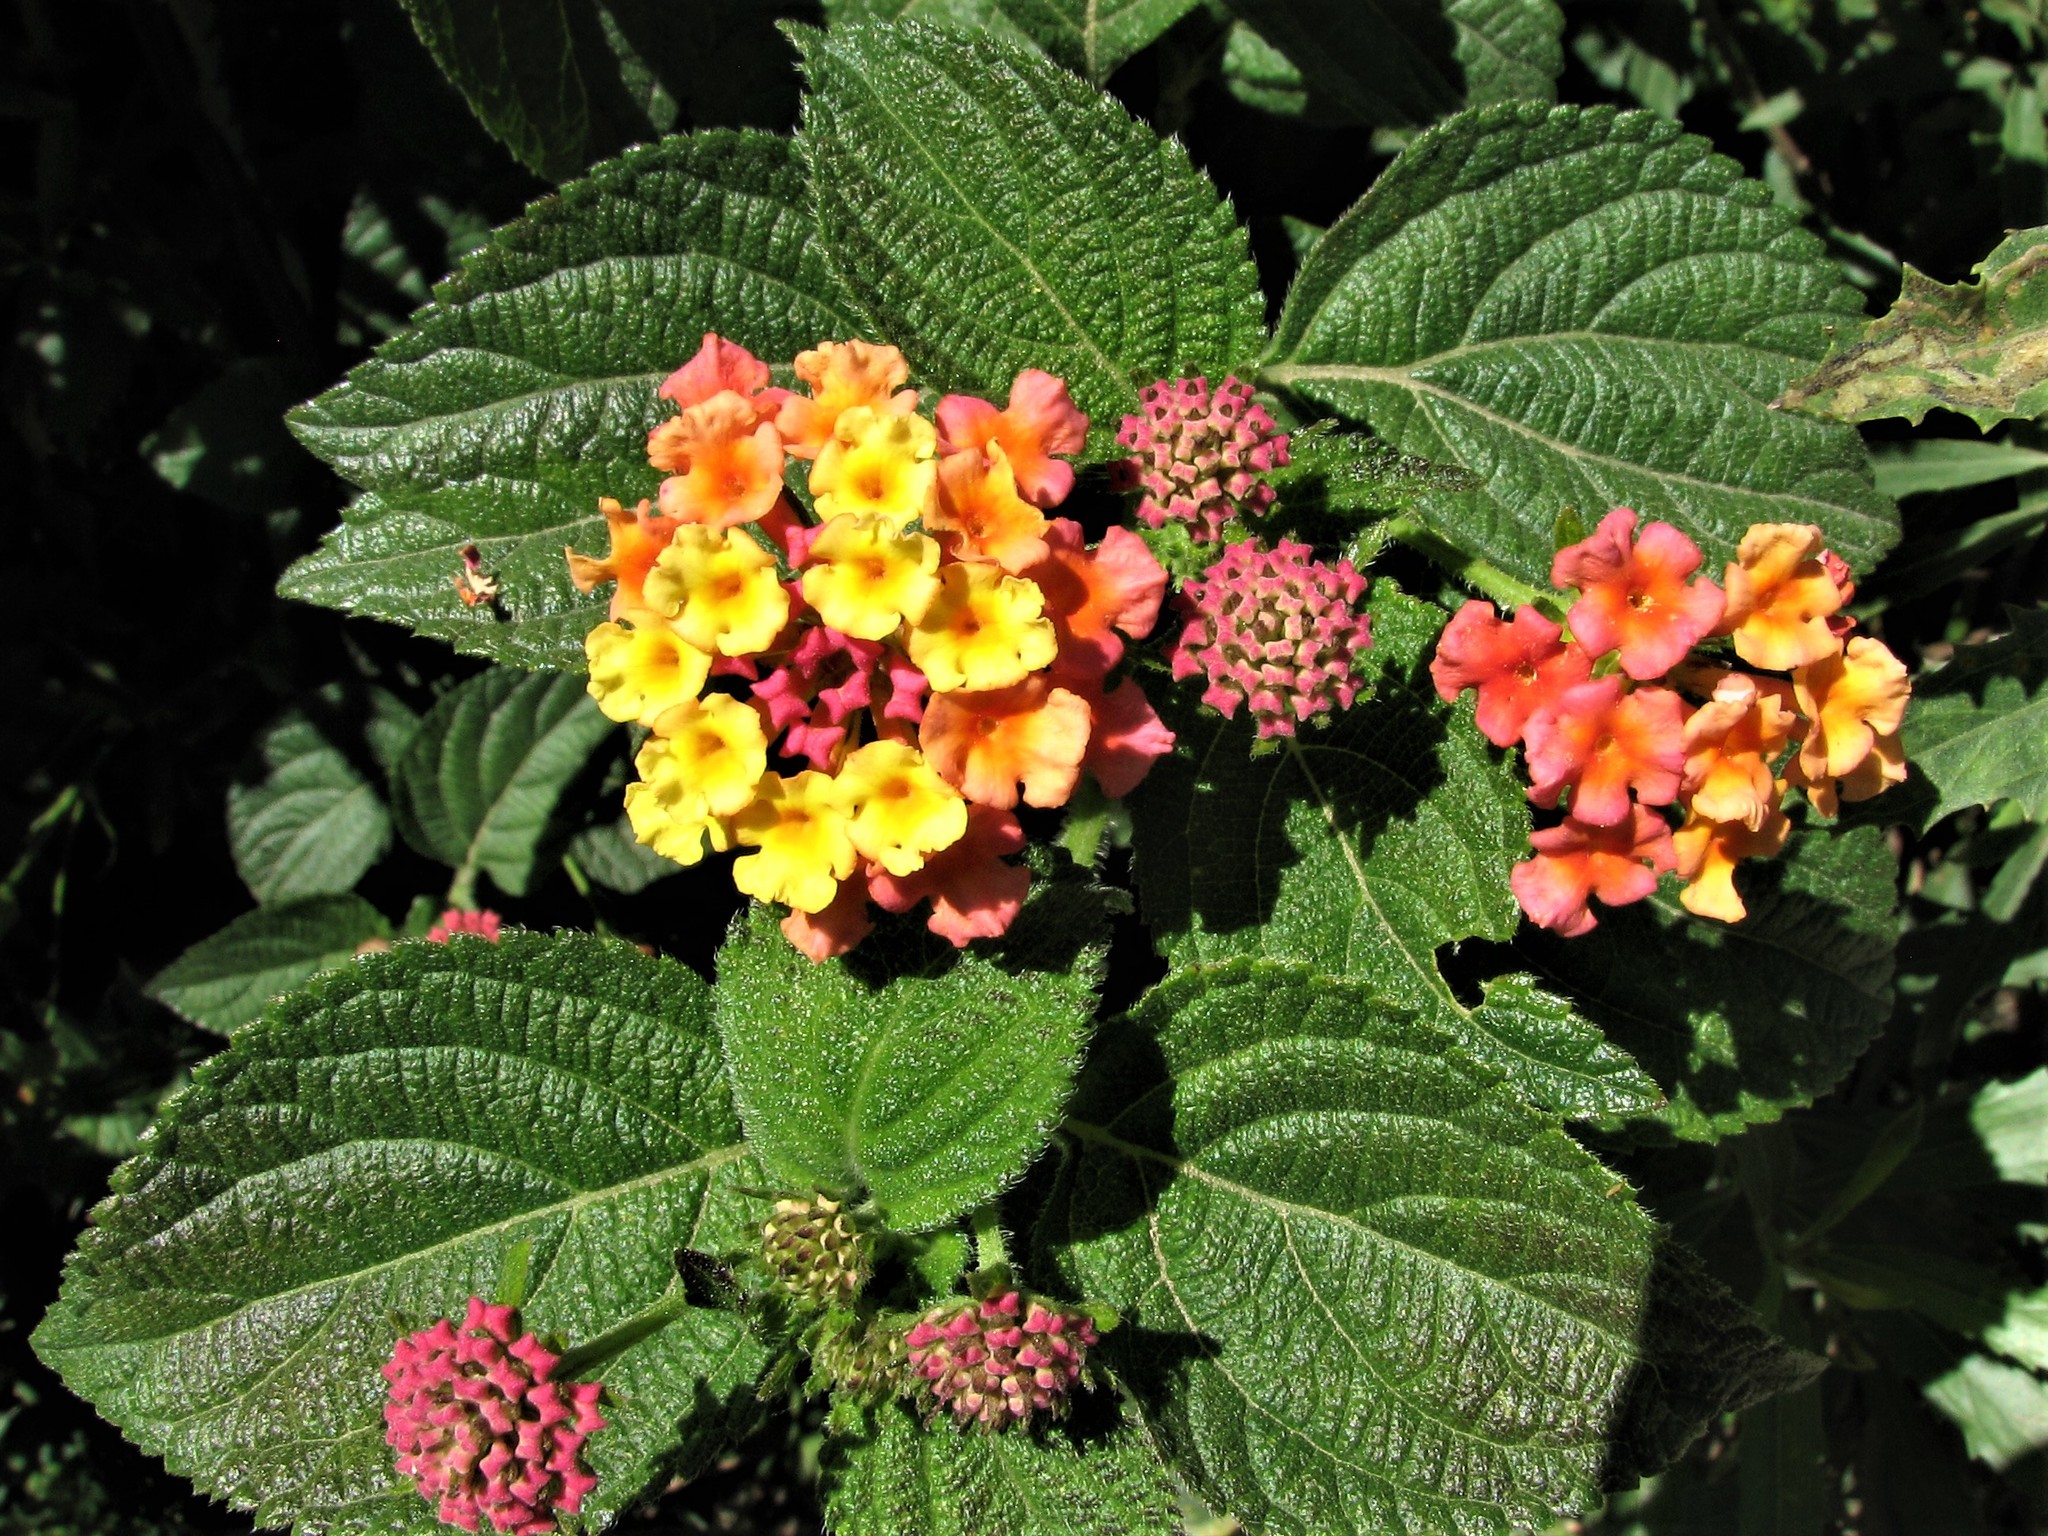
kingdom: Plantae
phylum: Tracheophyta
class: Magnoliopsida
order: Lamiales
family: Verbenaceae
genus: Lantana
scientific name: Lantana camara
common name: Lantana
